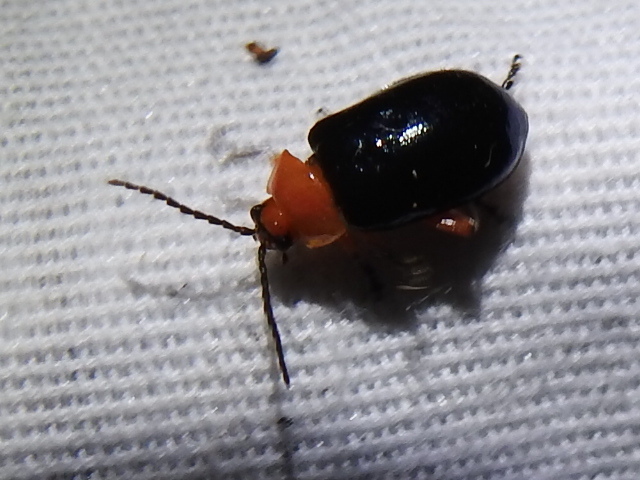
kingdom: Animalia
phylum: Arthropoda
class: Insecta
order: Coleoptera
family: Chrysomelidae
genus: Asphaera
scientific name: Asphaera lustrans
